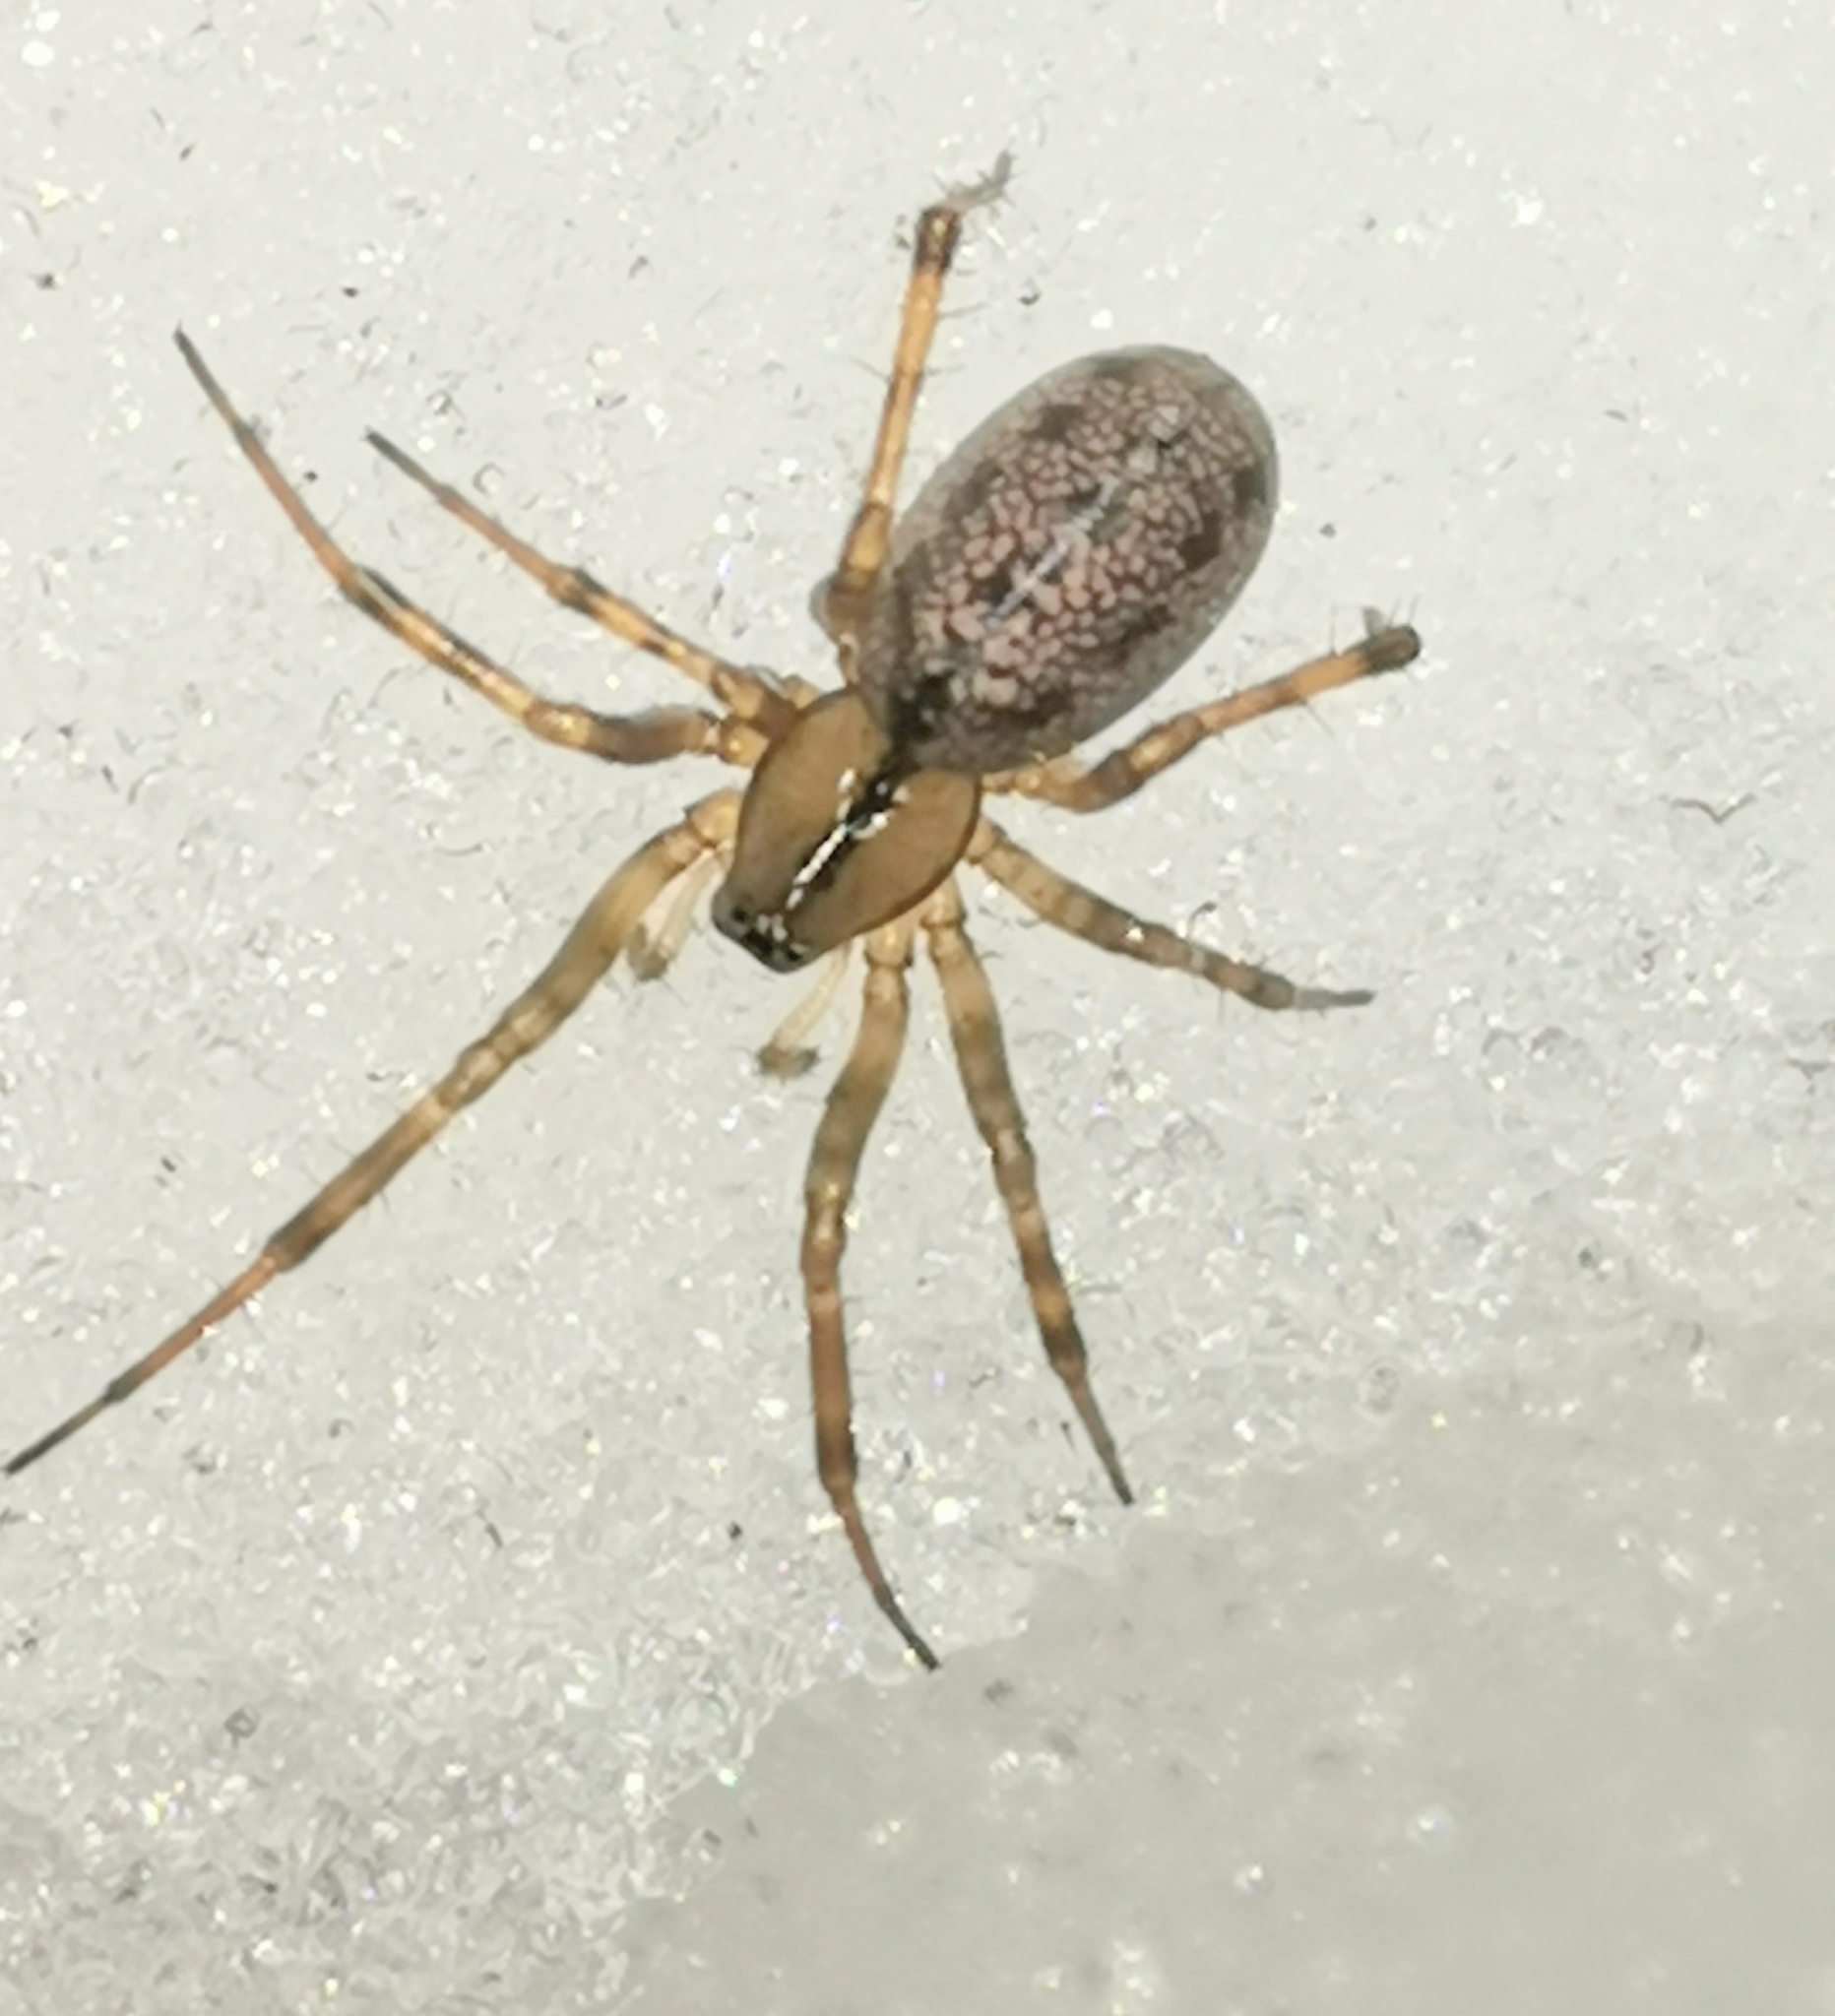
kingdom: Animalia
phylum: Arthropoda
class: Arachnida
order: Araneae
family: Linyphiidae
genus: Stemonyphantes
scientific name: Stemonyphantes lineatus
